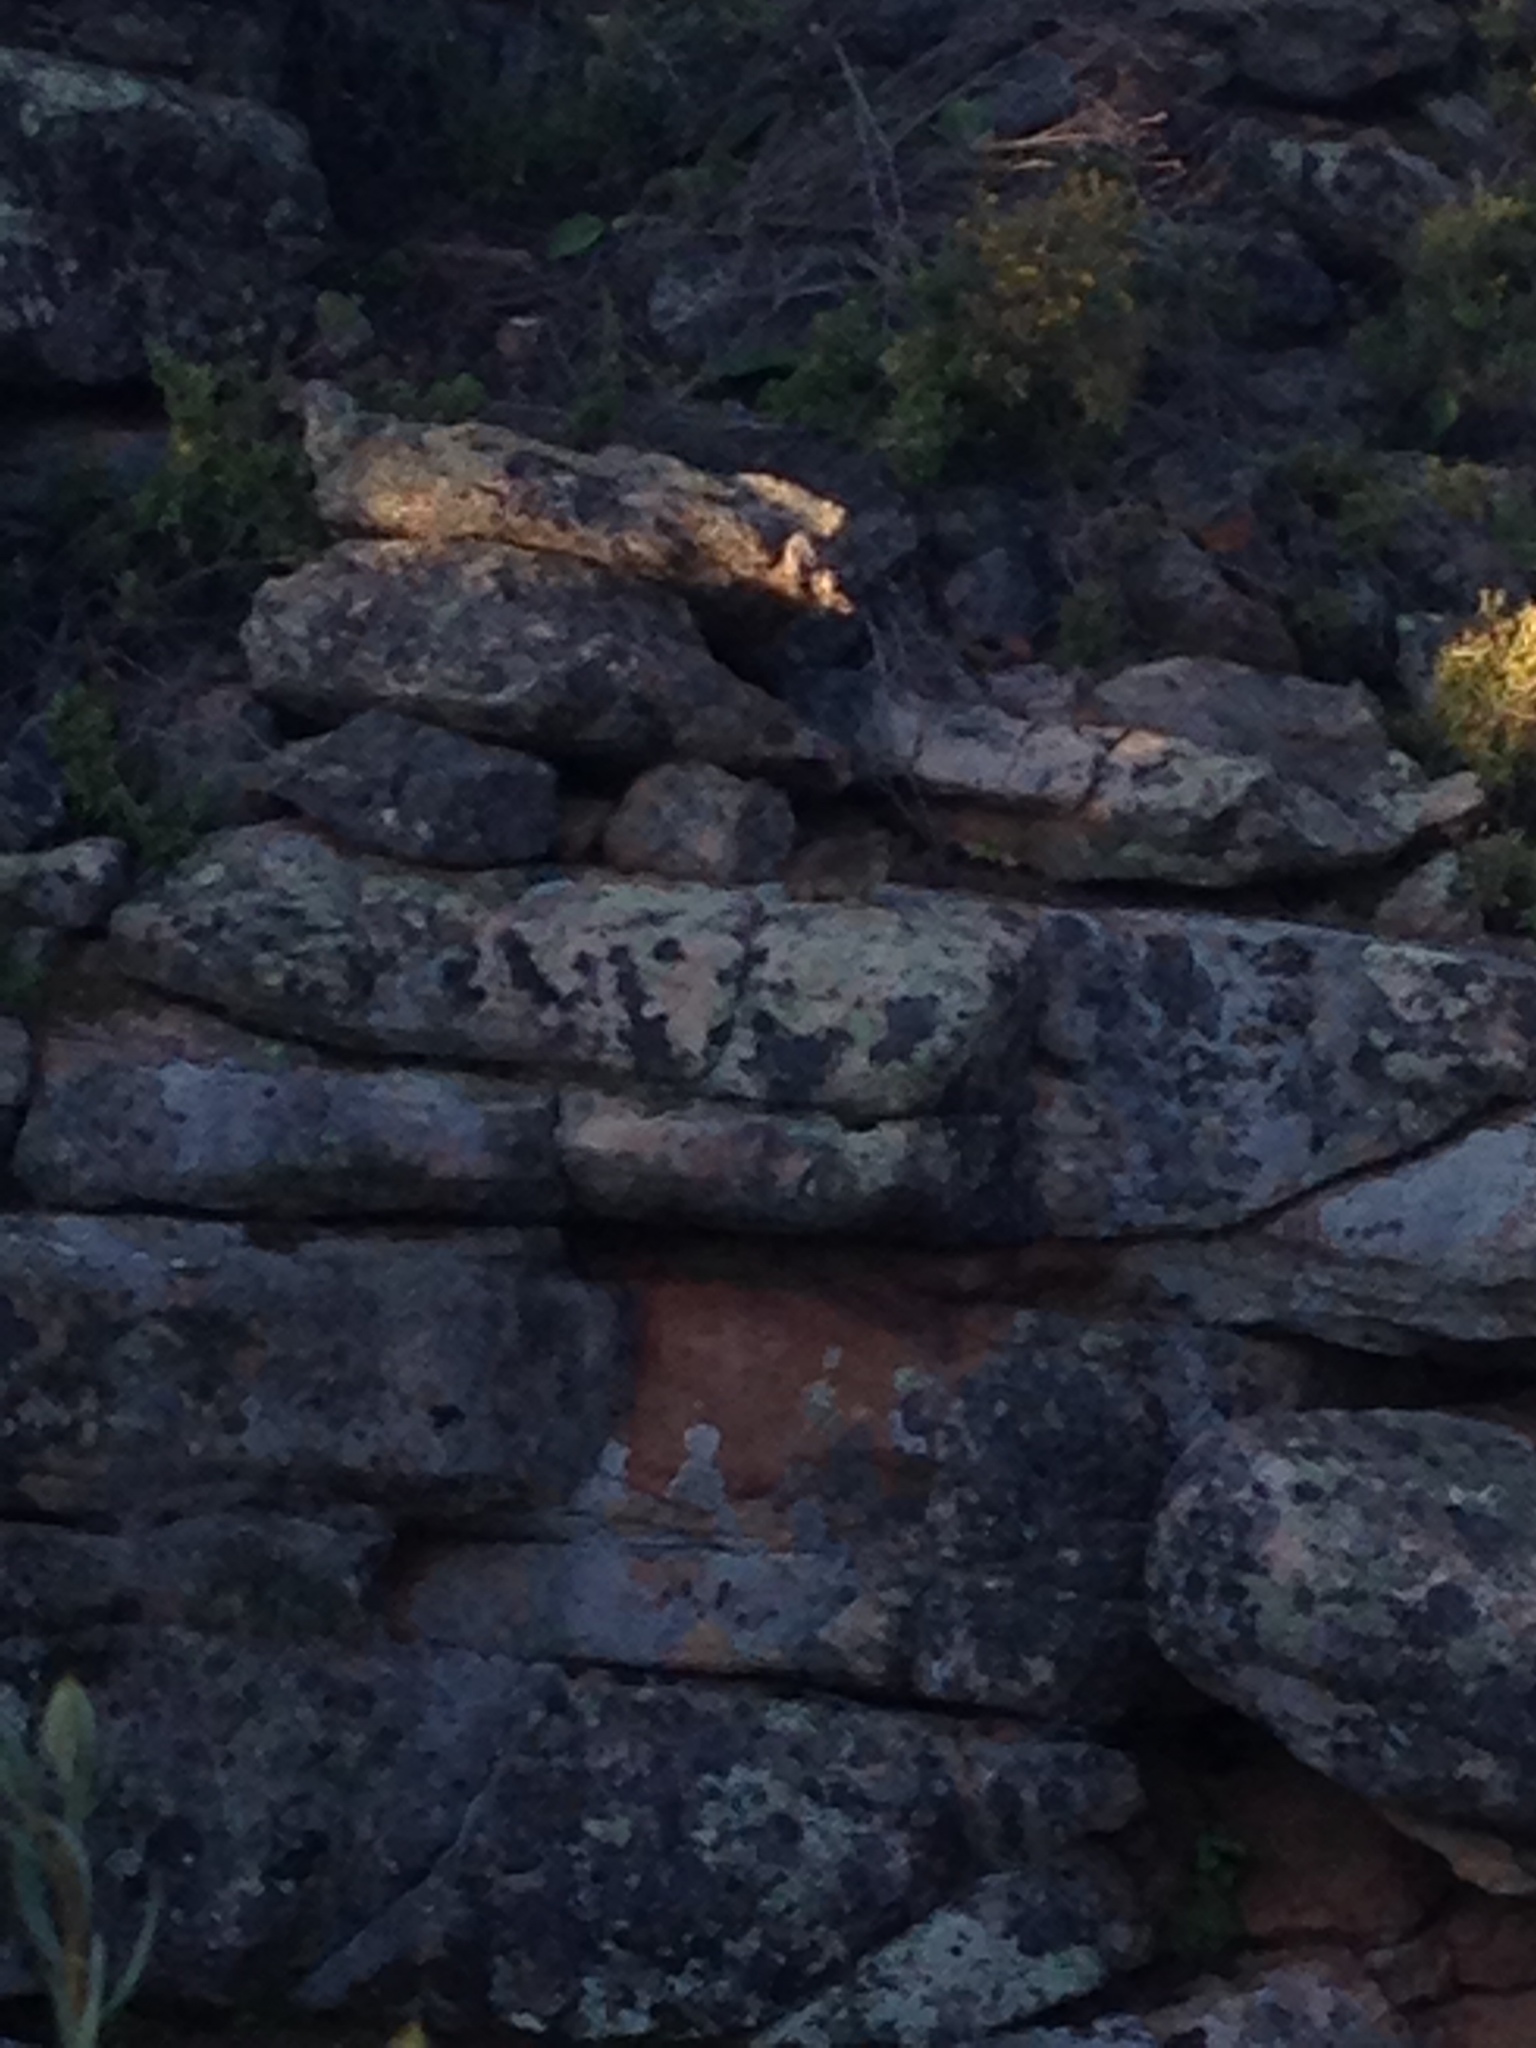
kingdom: Animalia
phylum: Chordata
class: Mammalia
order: Hyracoidea
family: Procaviidae
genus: Procavia
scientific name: Procavia capensis
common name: Rock hyrax
